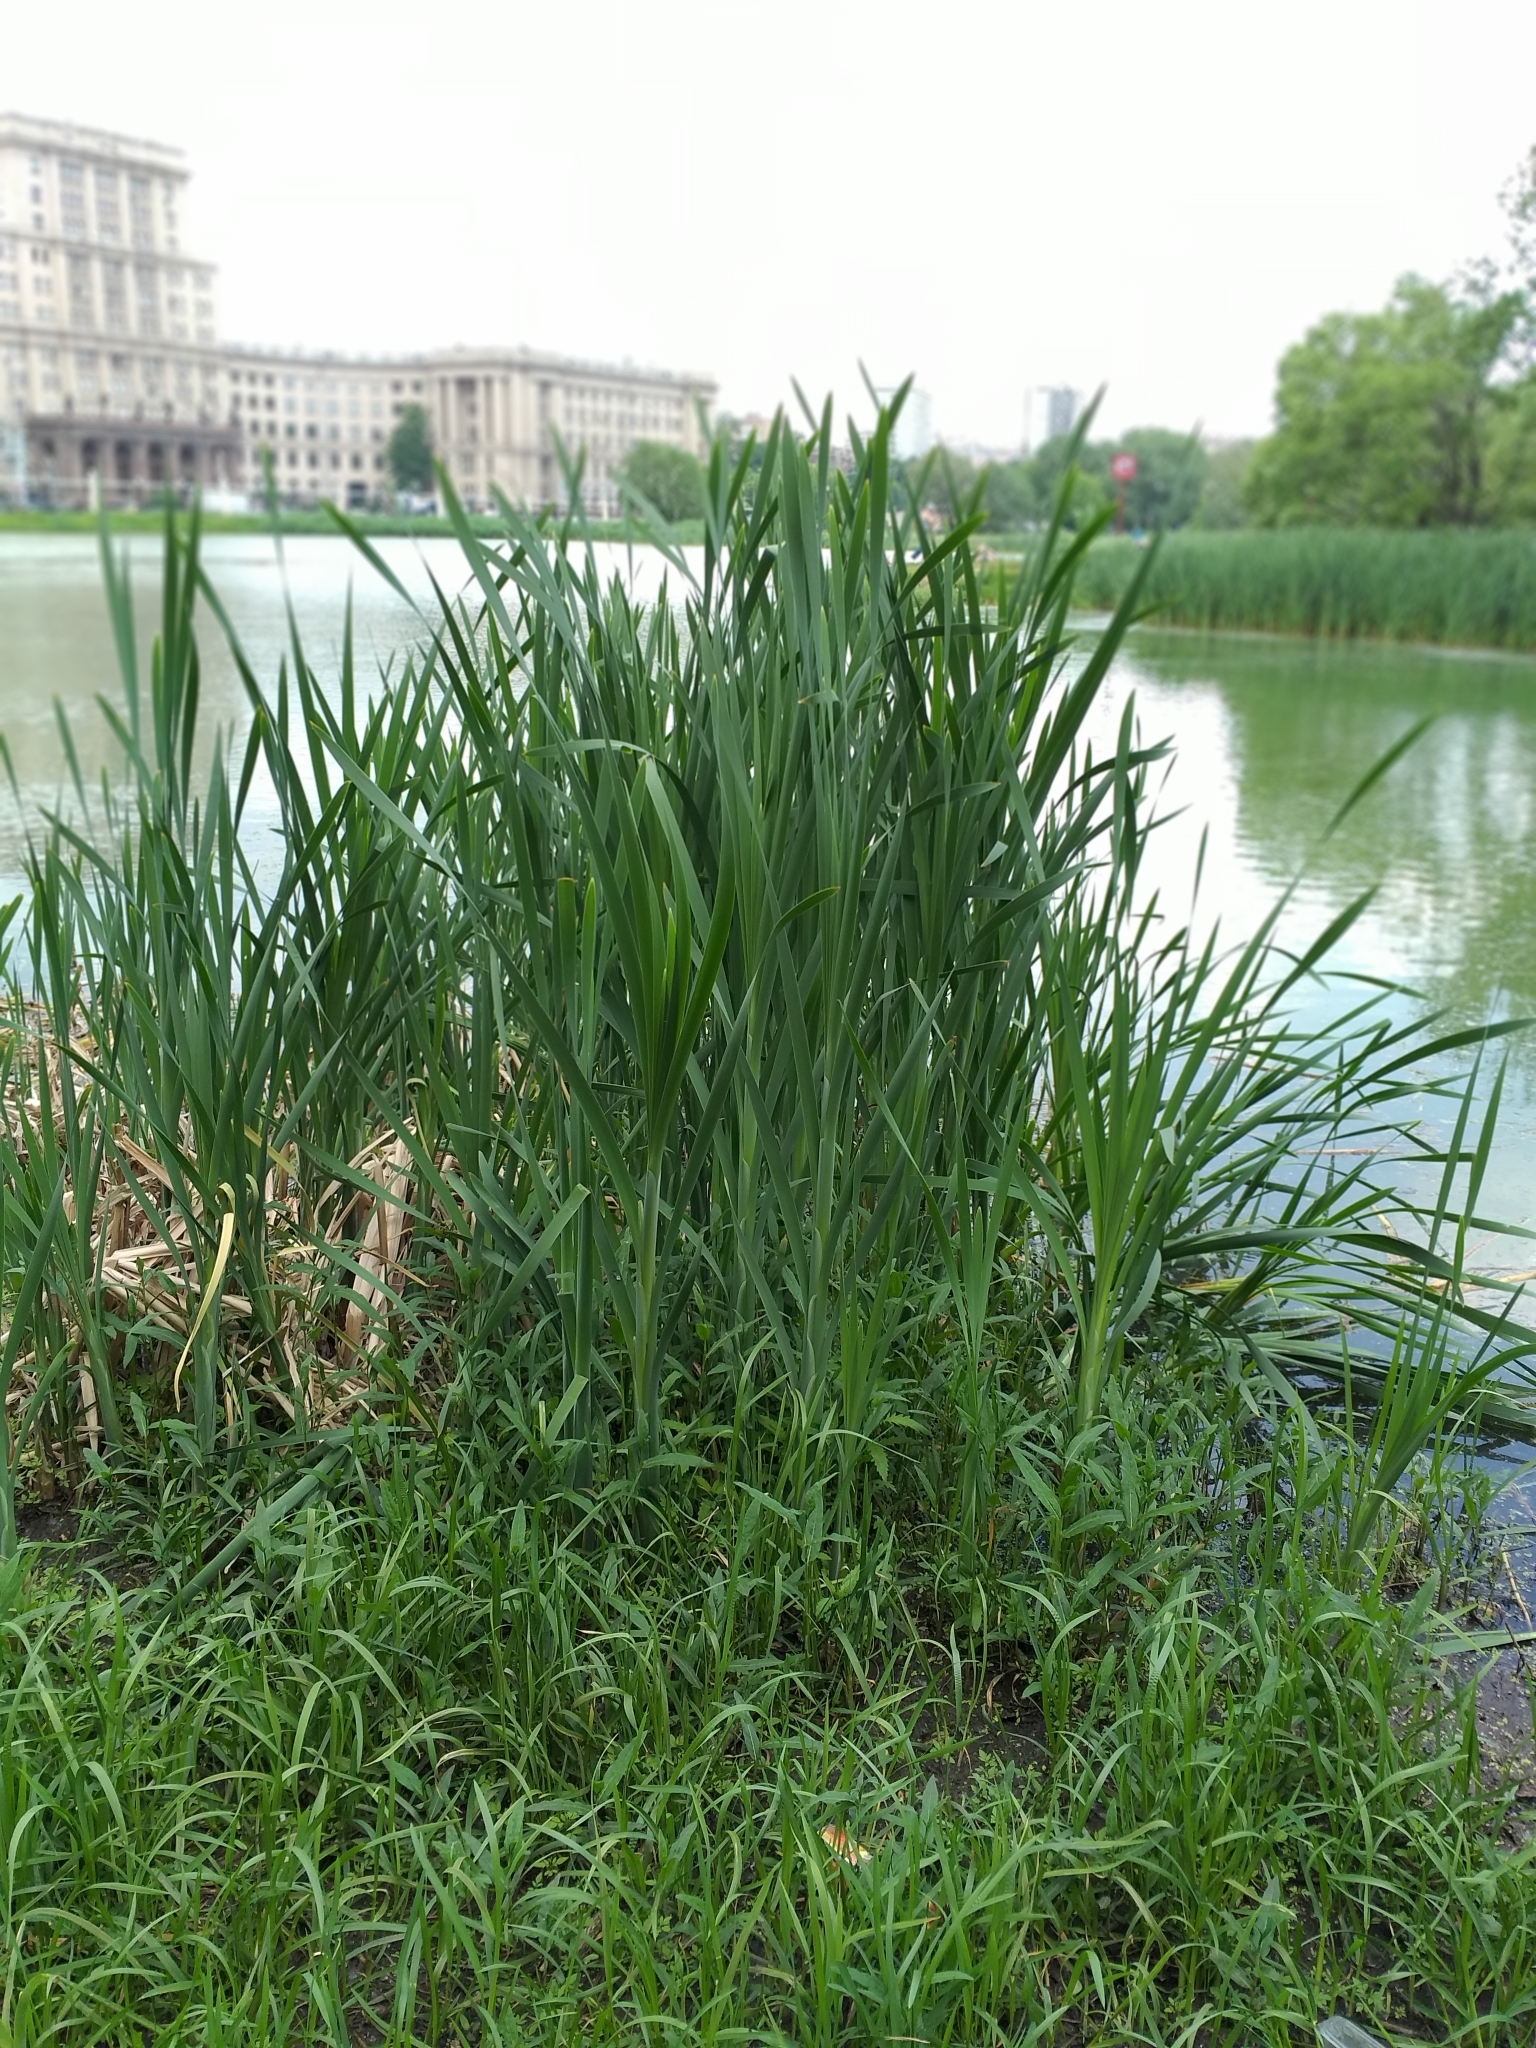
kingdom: Plantae
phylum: Tracheophyta
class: Liliopsida
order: Poales
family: Typhaceae
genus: Typha
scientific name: Typha latifolia
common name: Broadleaf cattail
